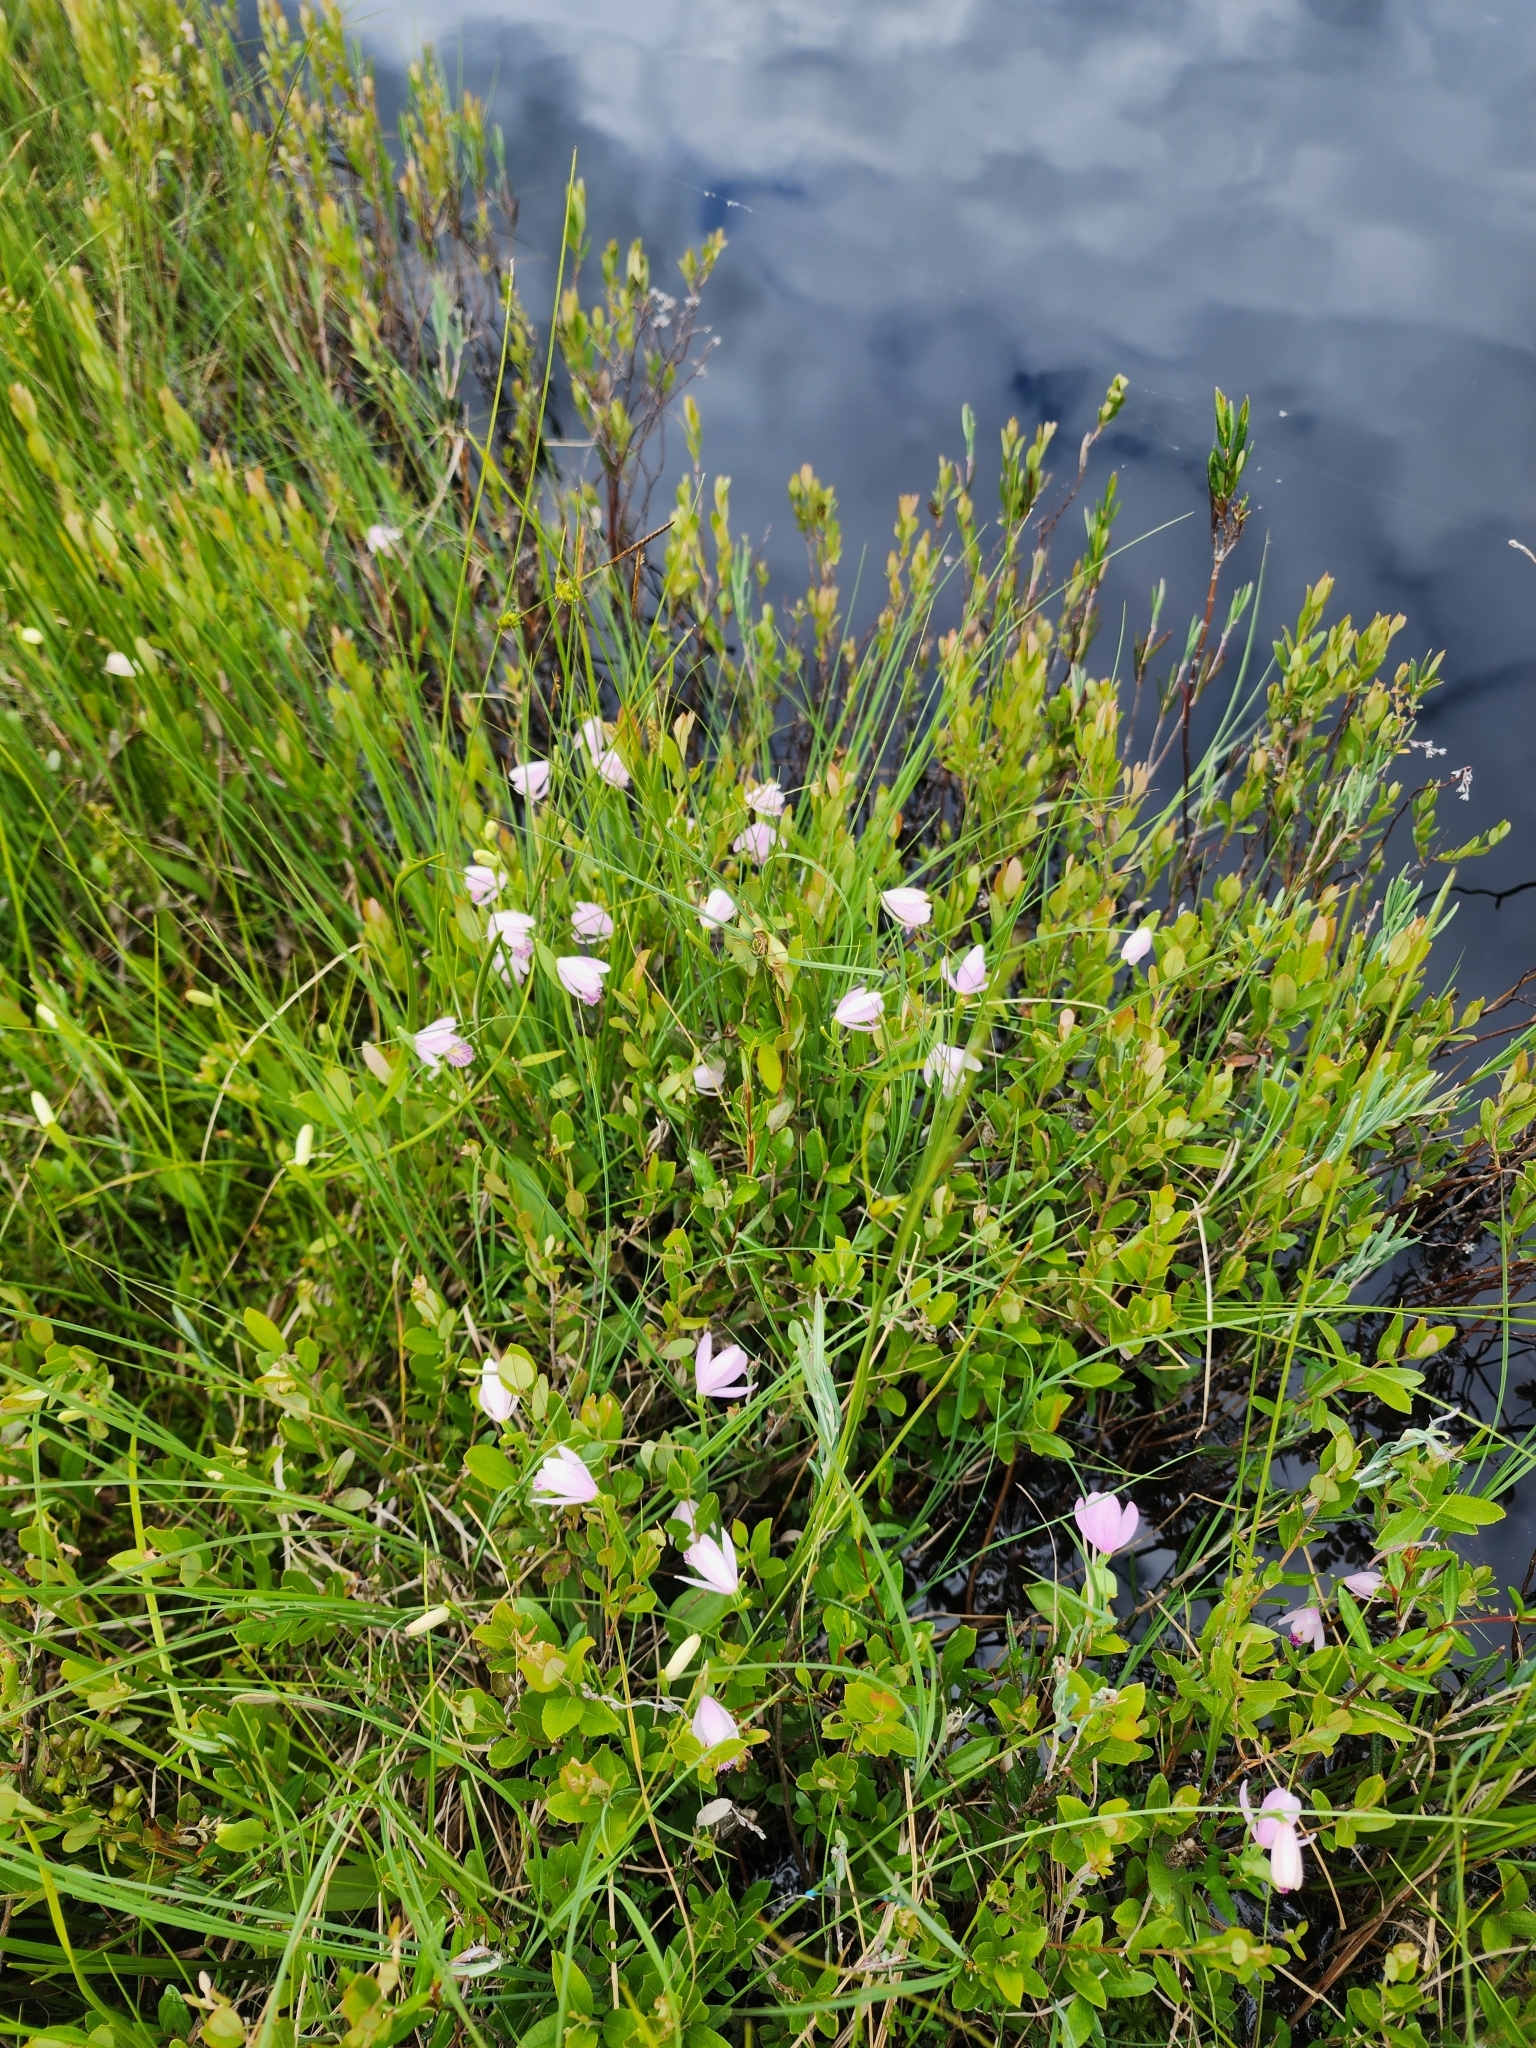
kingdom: Plantae
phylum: Tracheophyta
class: Liliopsida
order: Asparagales
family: Orchidaceae
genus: Pogonia
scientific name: Pogonia ophioglossoides
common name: Rose pogonia
